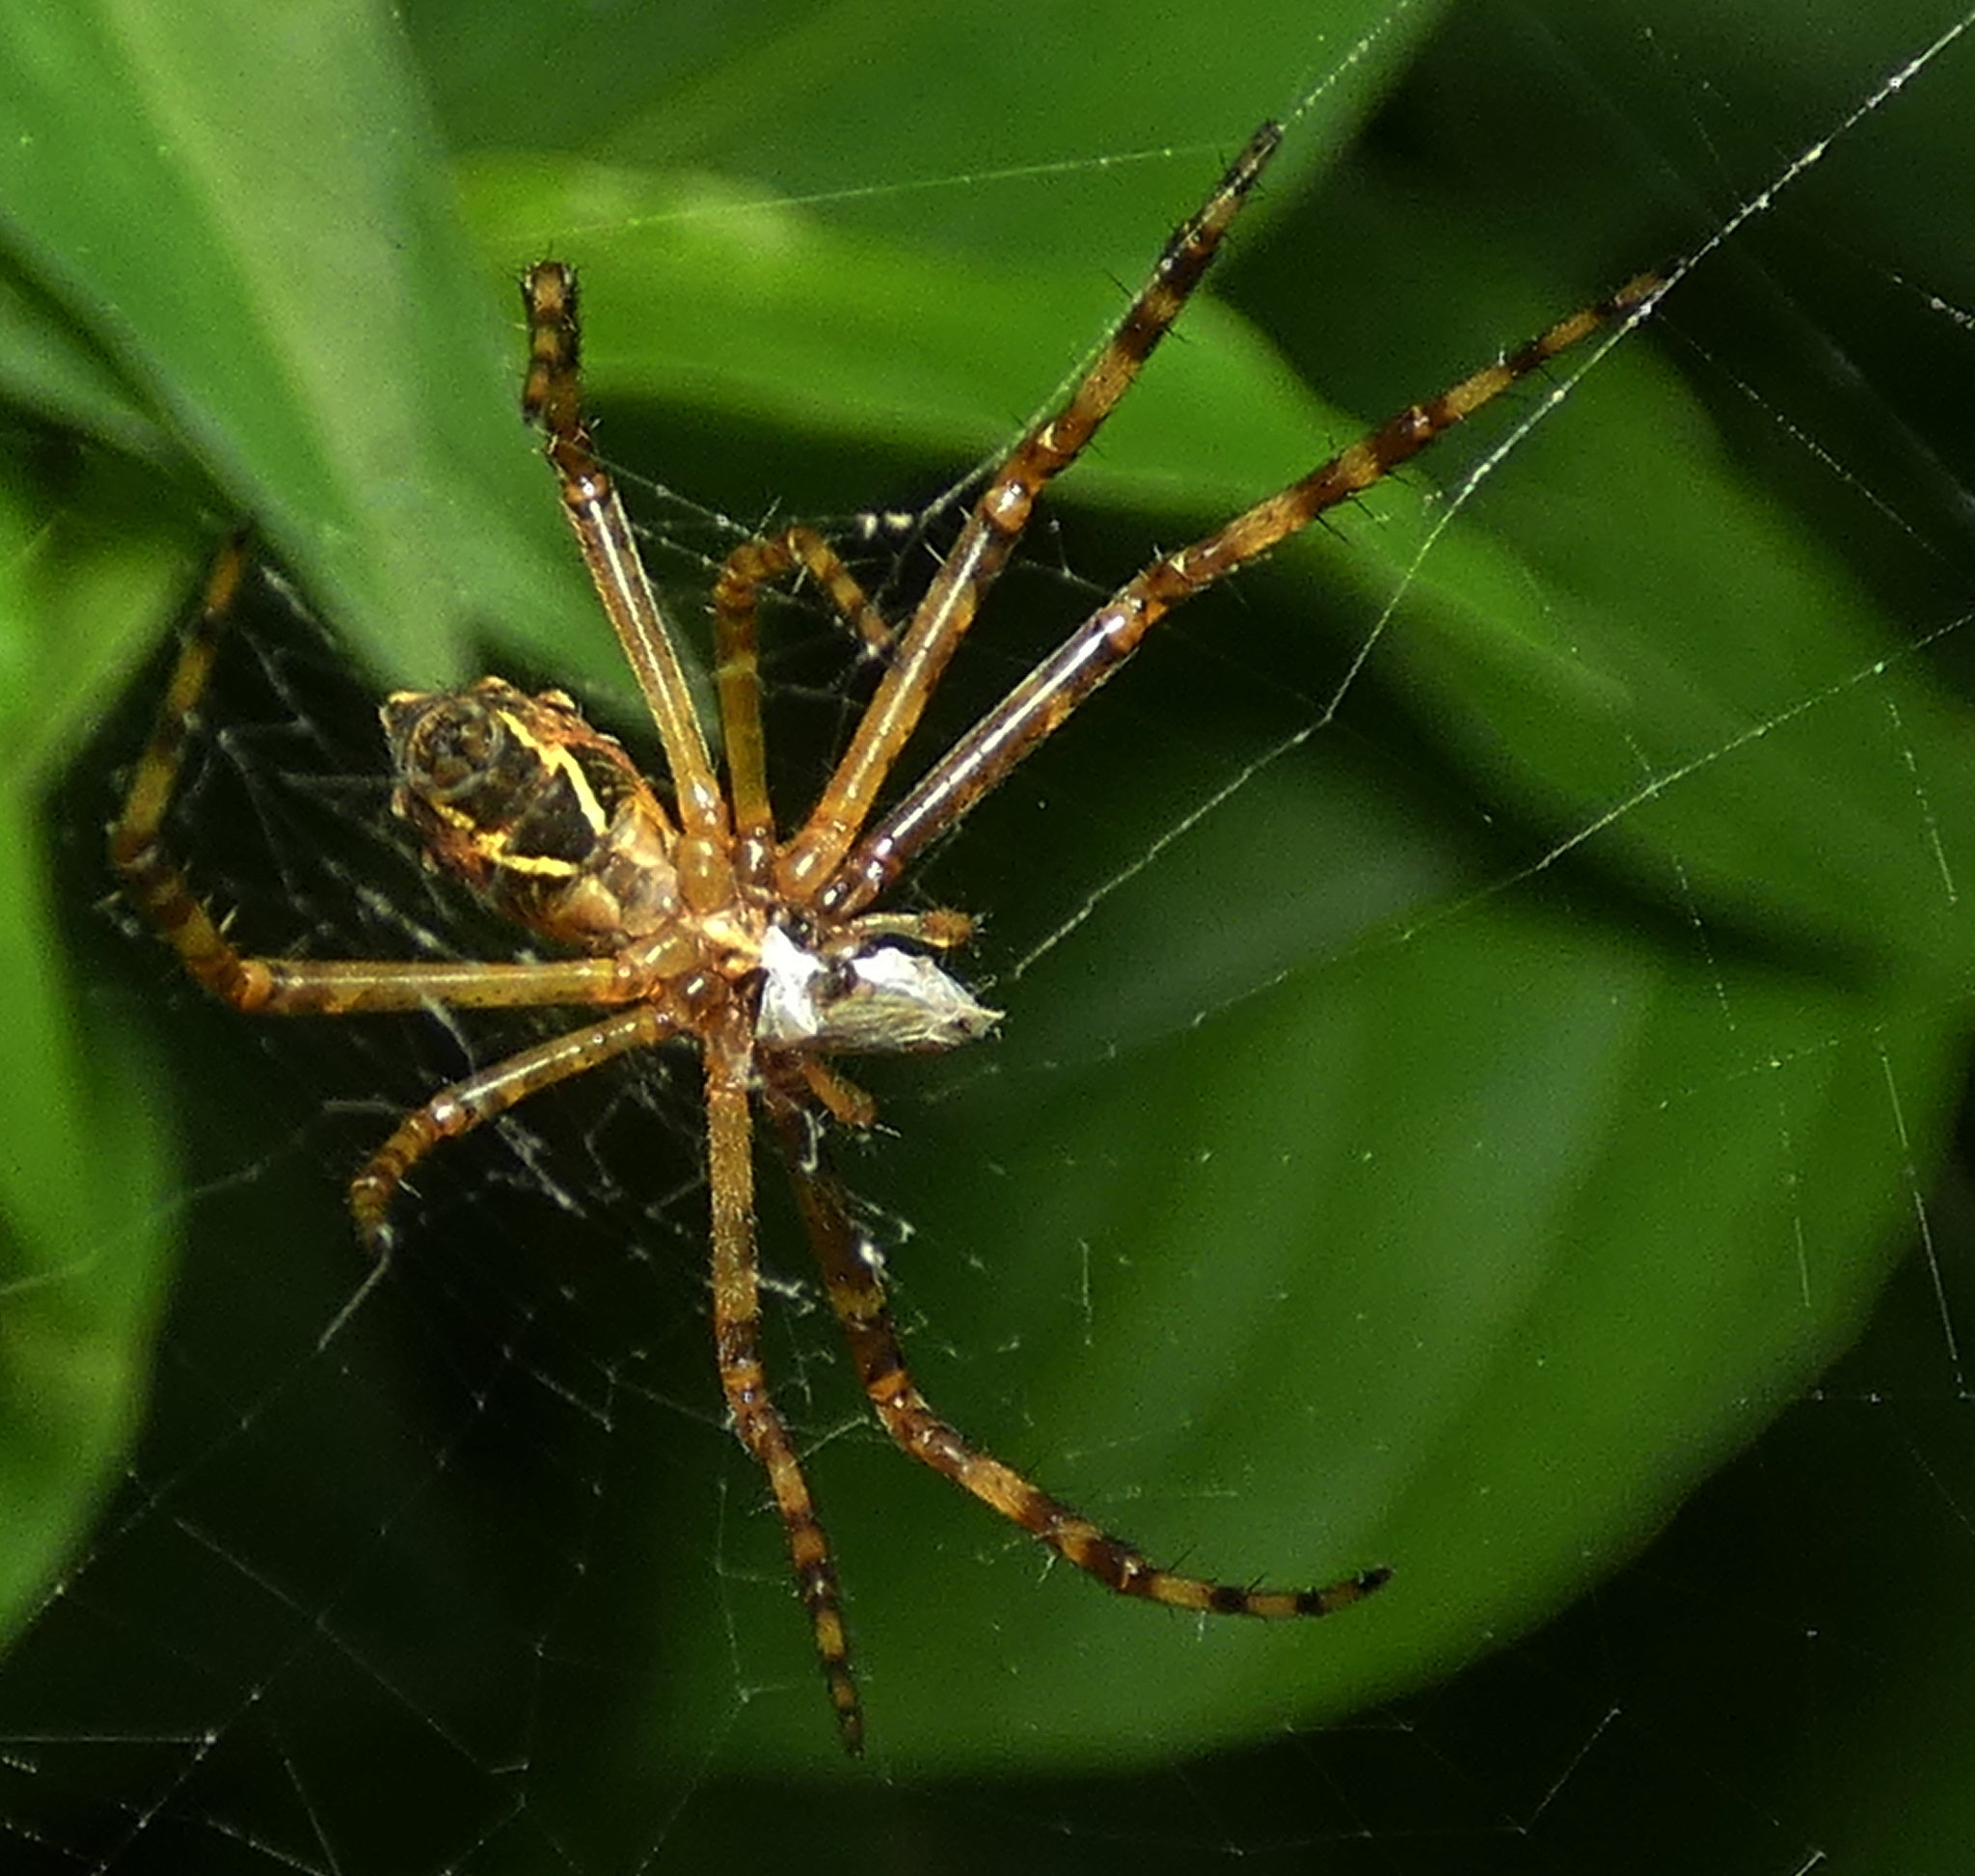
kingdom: Animalia
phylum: Arthropoda
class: Arachnida
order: Araneae
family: Araneidae
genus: Argiope
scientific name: Argiope argentata
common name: Orb weavers
